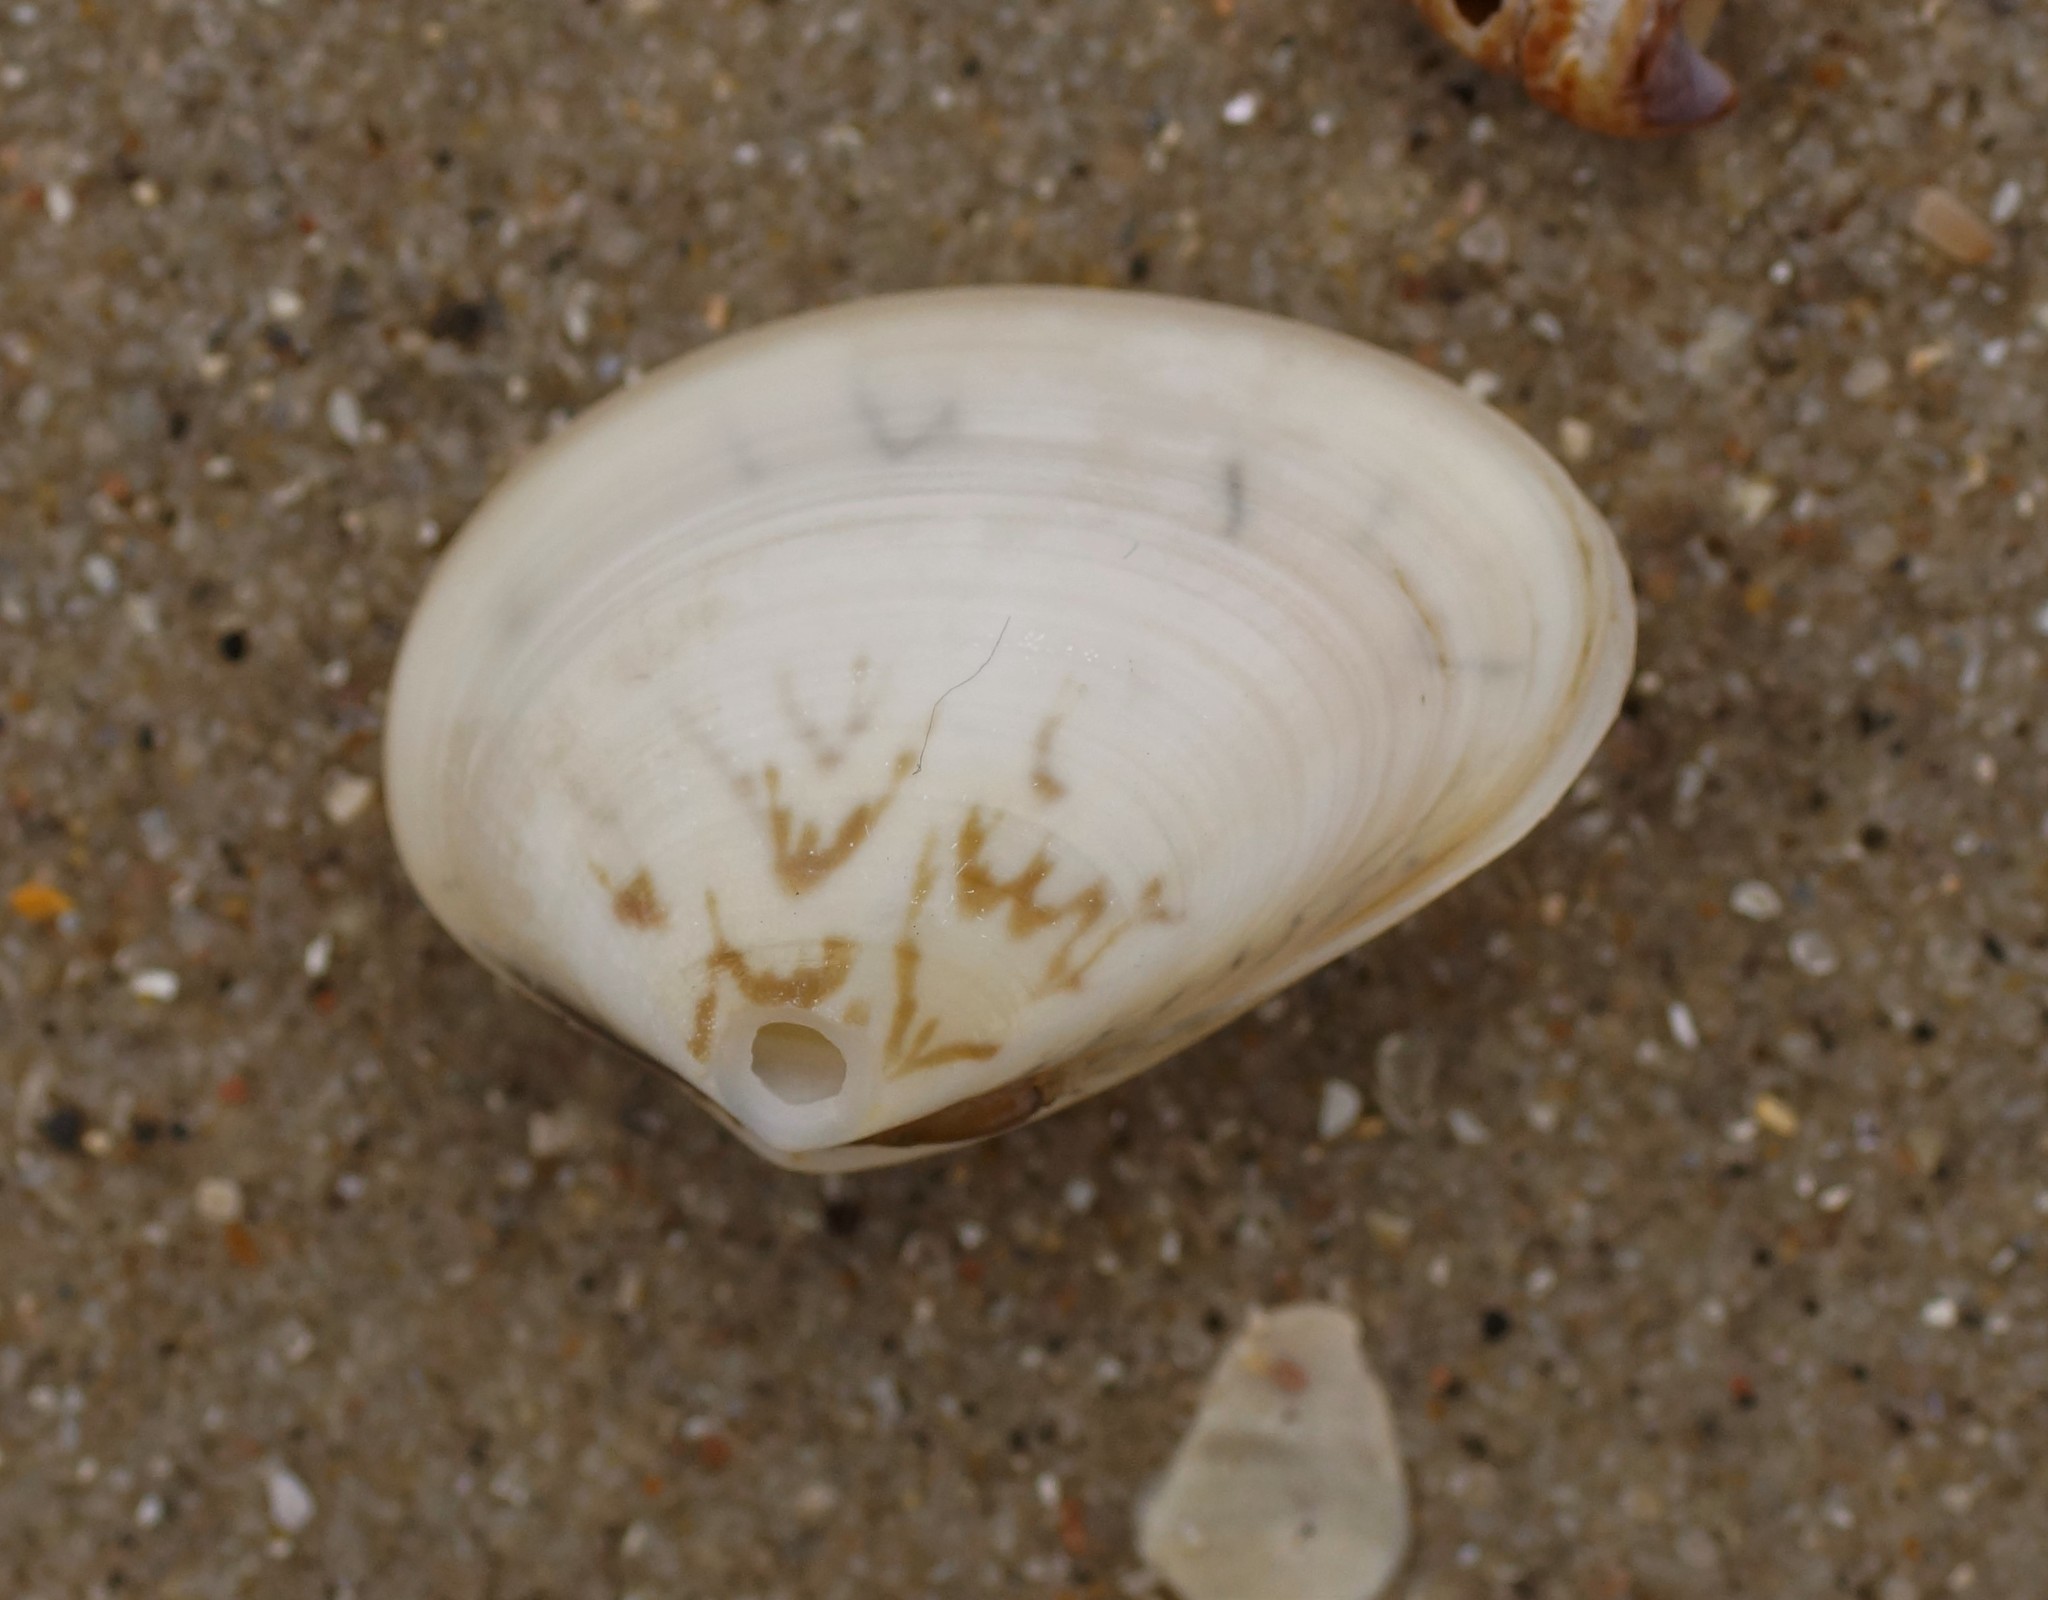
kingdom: Animalia
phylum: Mollusca
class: Bivalvia
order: Venerida
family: Veneridae
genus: Eumarcia
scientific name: Eumarcia fumigata
